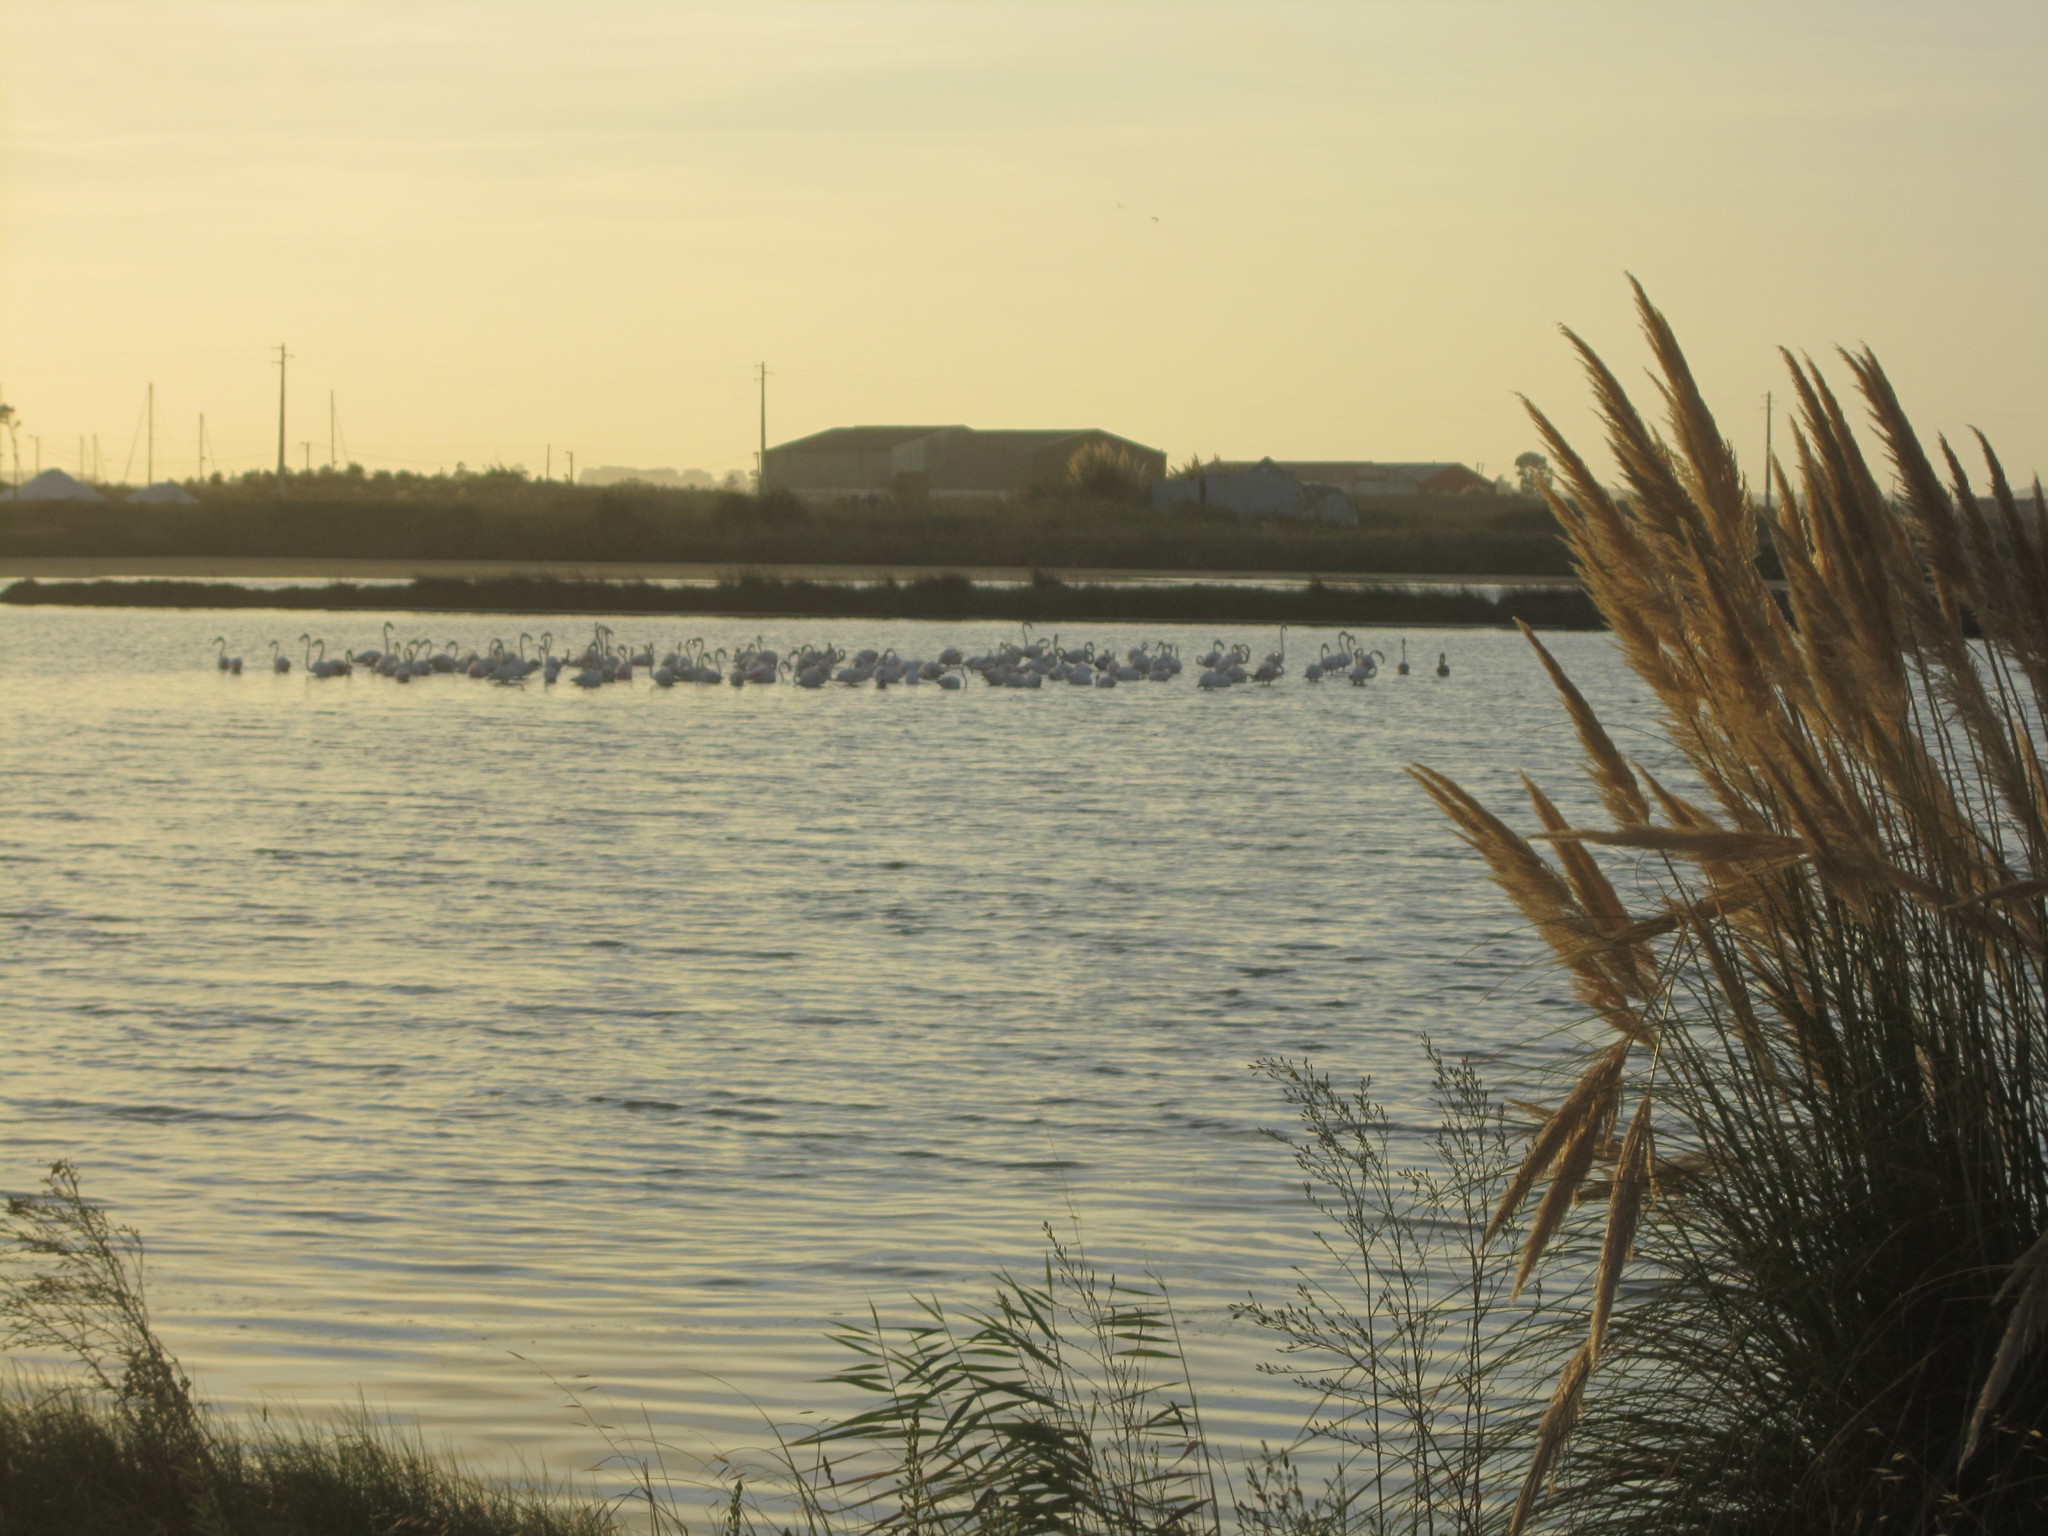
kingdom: Animalia
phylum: Chordata
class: Aves
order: Phoenicopteriformes
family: Phoenicopteridae
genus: Phoenicopterus
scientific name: Phoenicopterus roseus
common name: Greater flamingo
